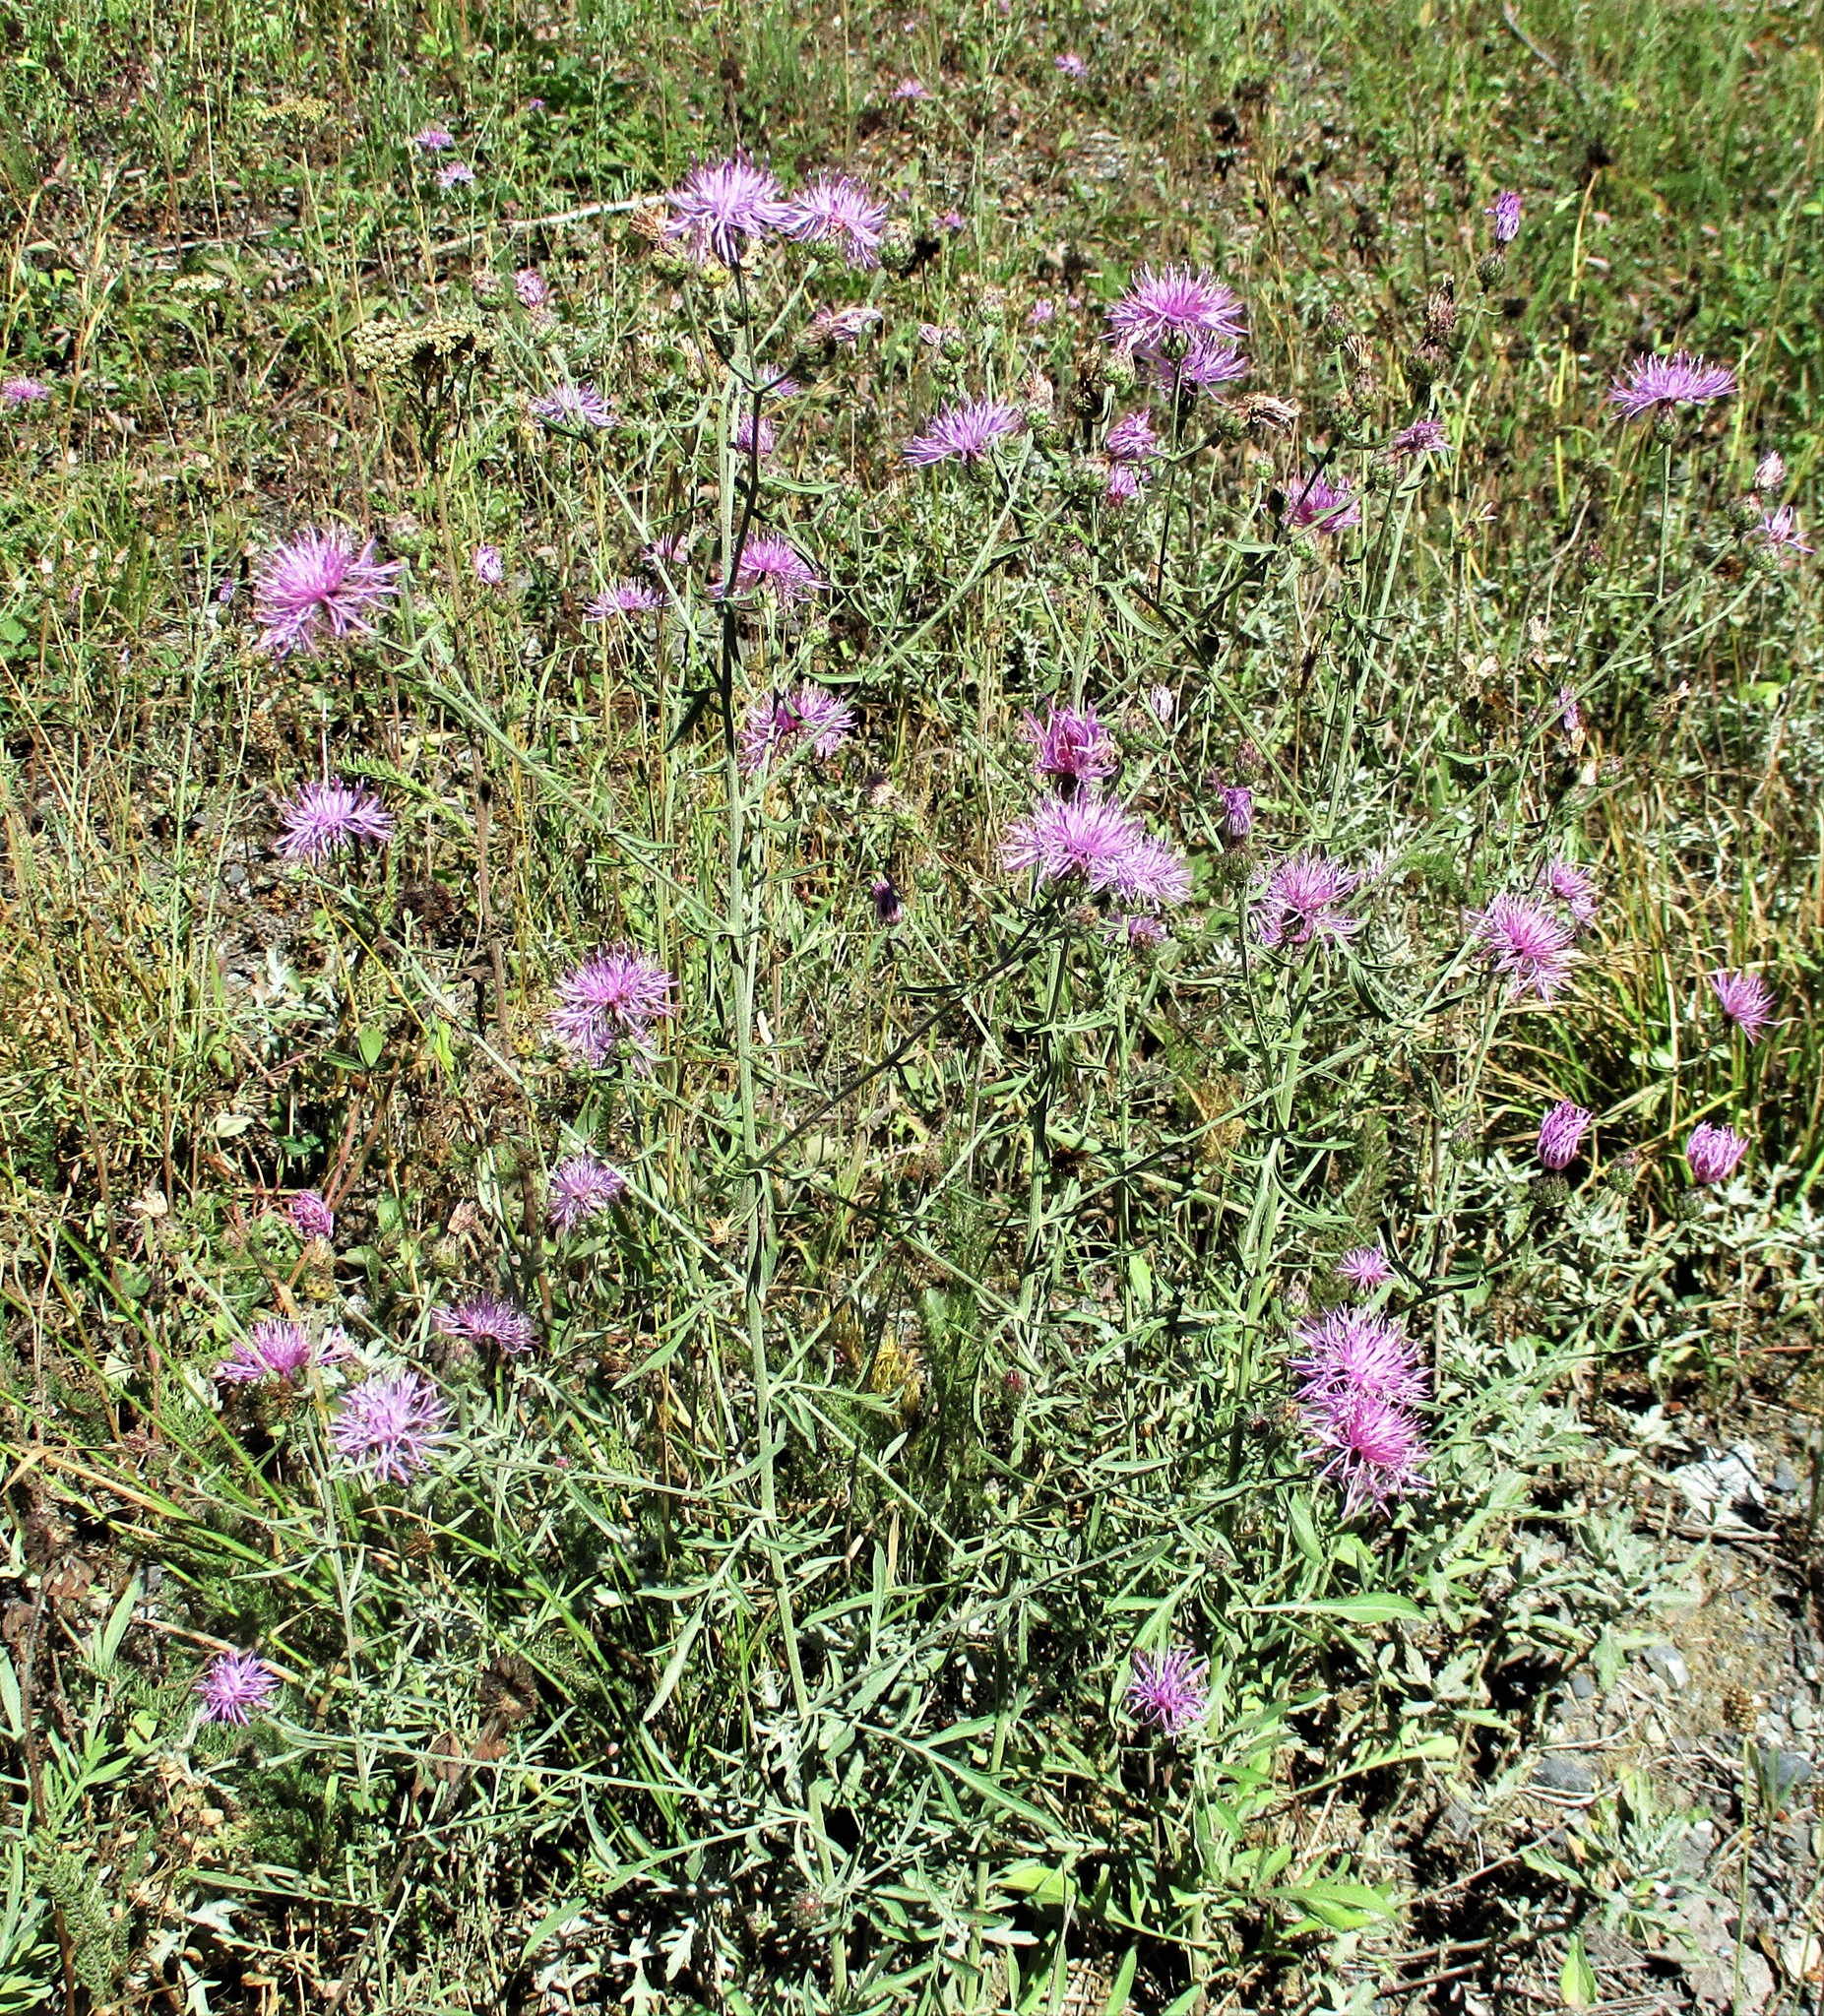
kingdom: Plantae
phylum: Tracheophyta
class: Magnoliopsida
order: Asterales
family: Asteraceae
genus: Centaurea
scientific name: Centaurea stoebe
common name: Spotted knapweed
